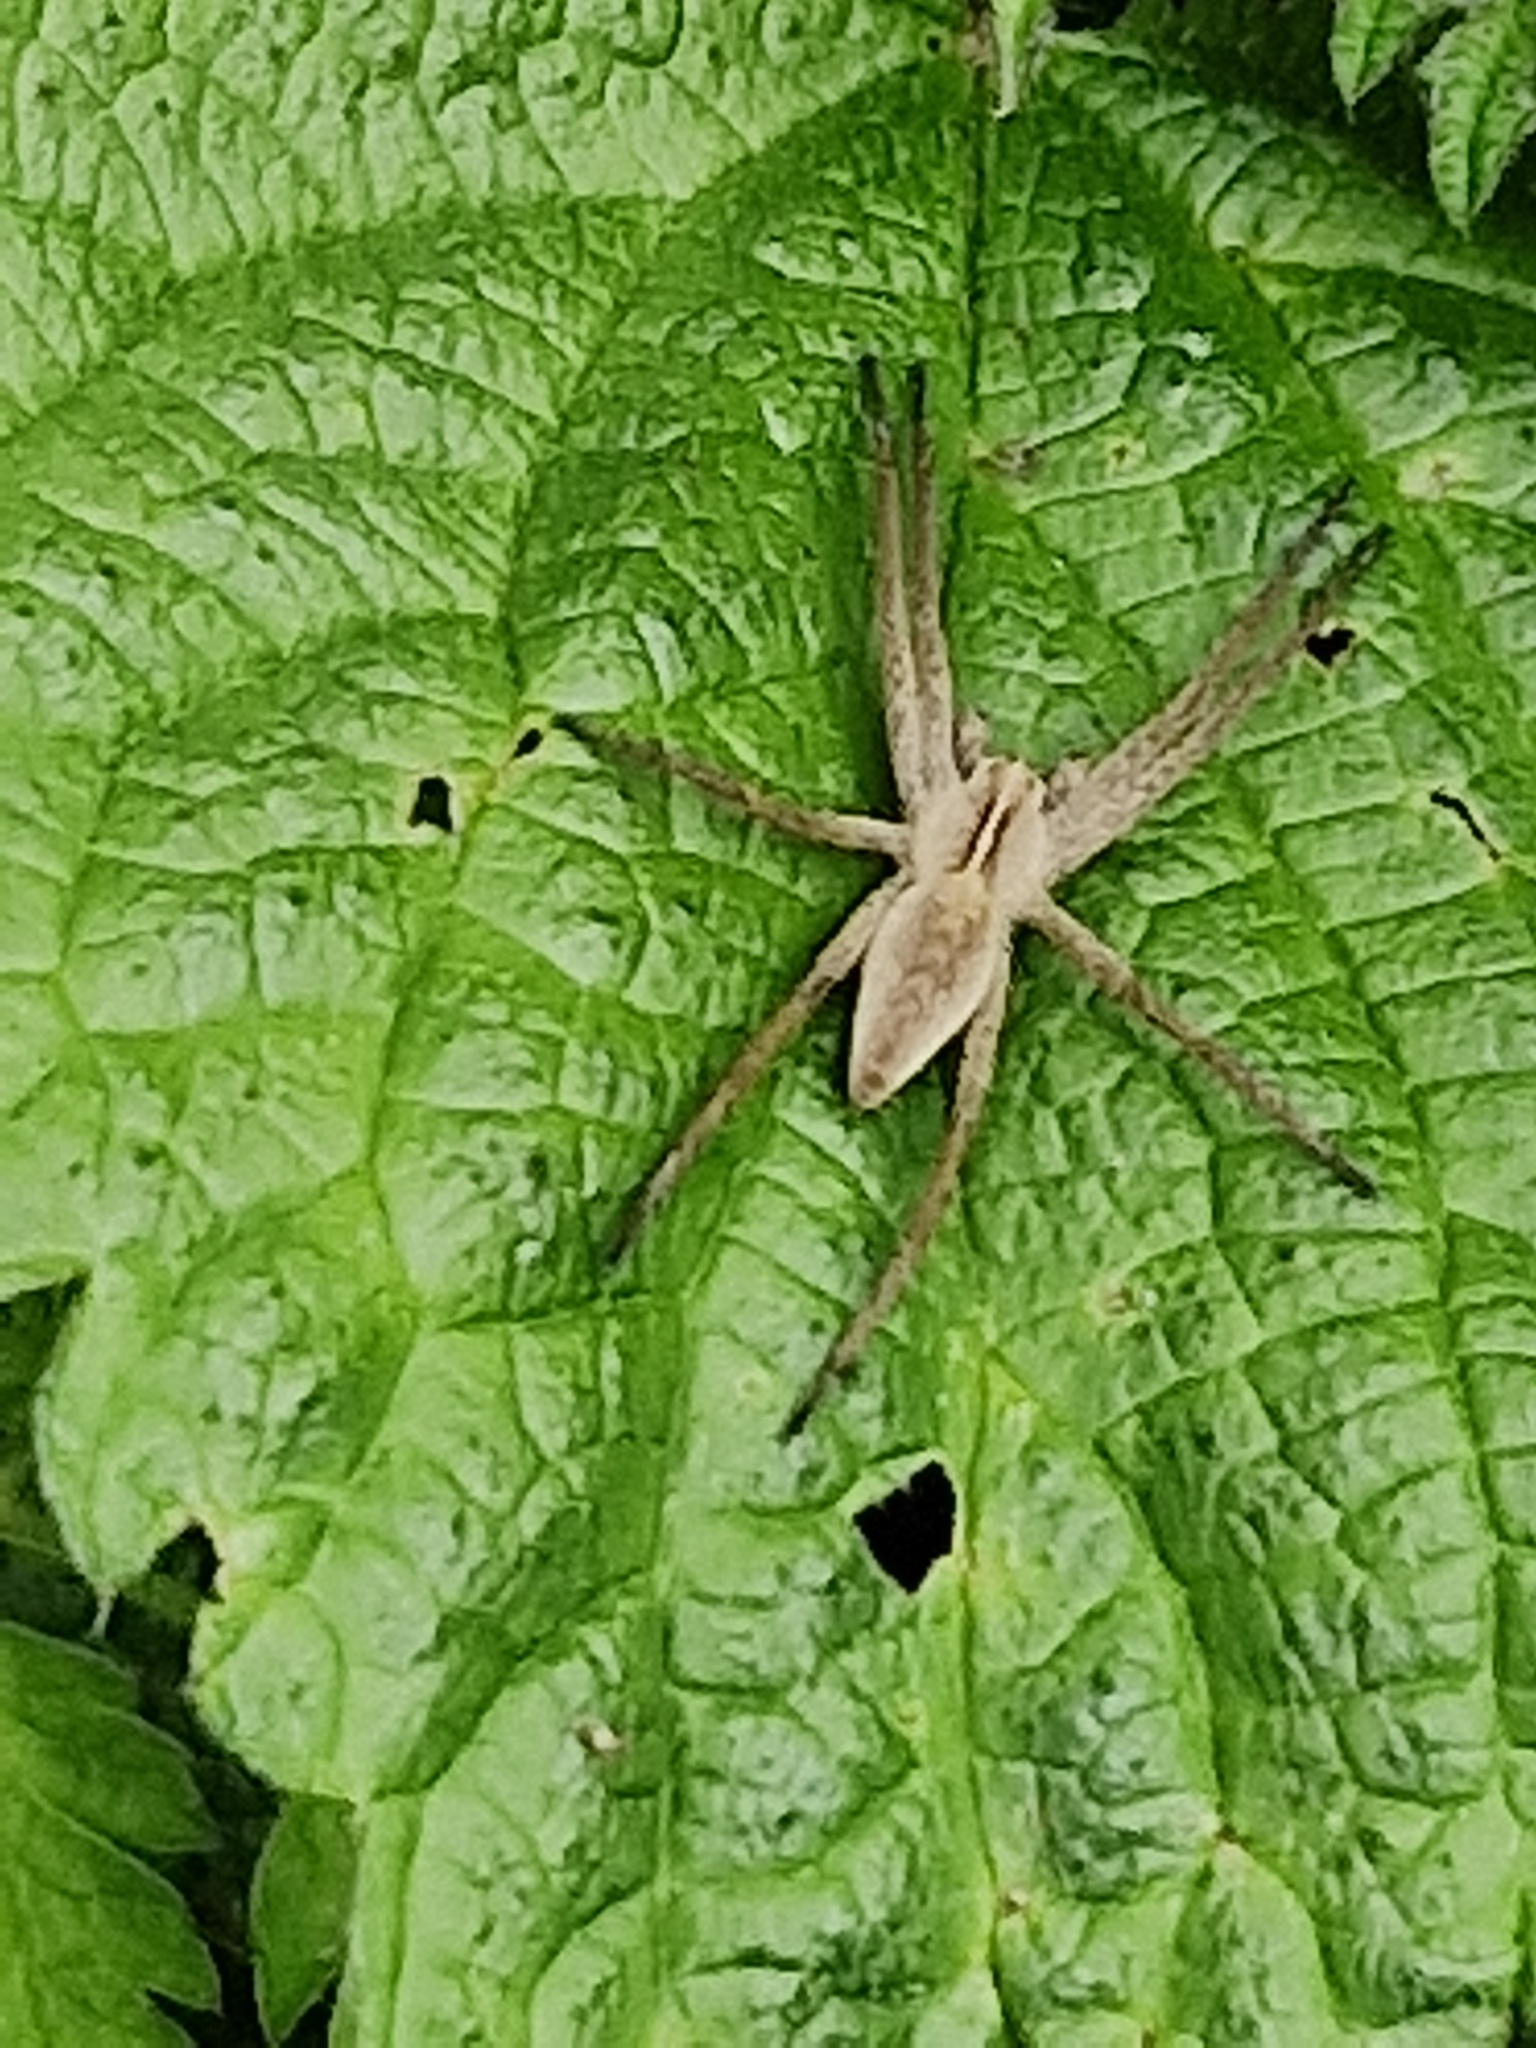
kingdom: Animalia
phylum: Arthropoda
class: Arachnida
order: Araneae
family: Pisauridae
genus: Pisaura
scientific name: Pisaura mirabilis
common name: Tent spider
